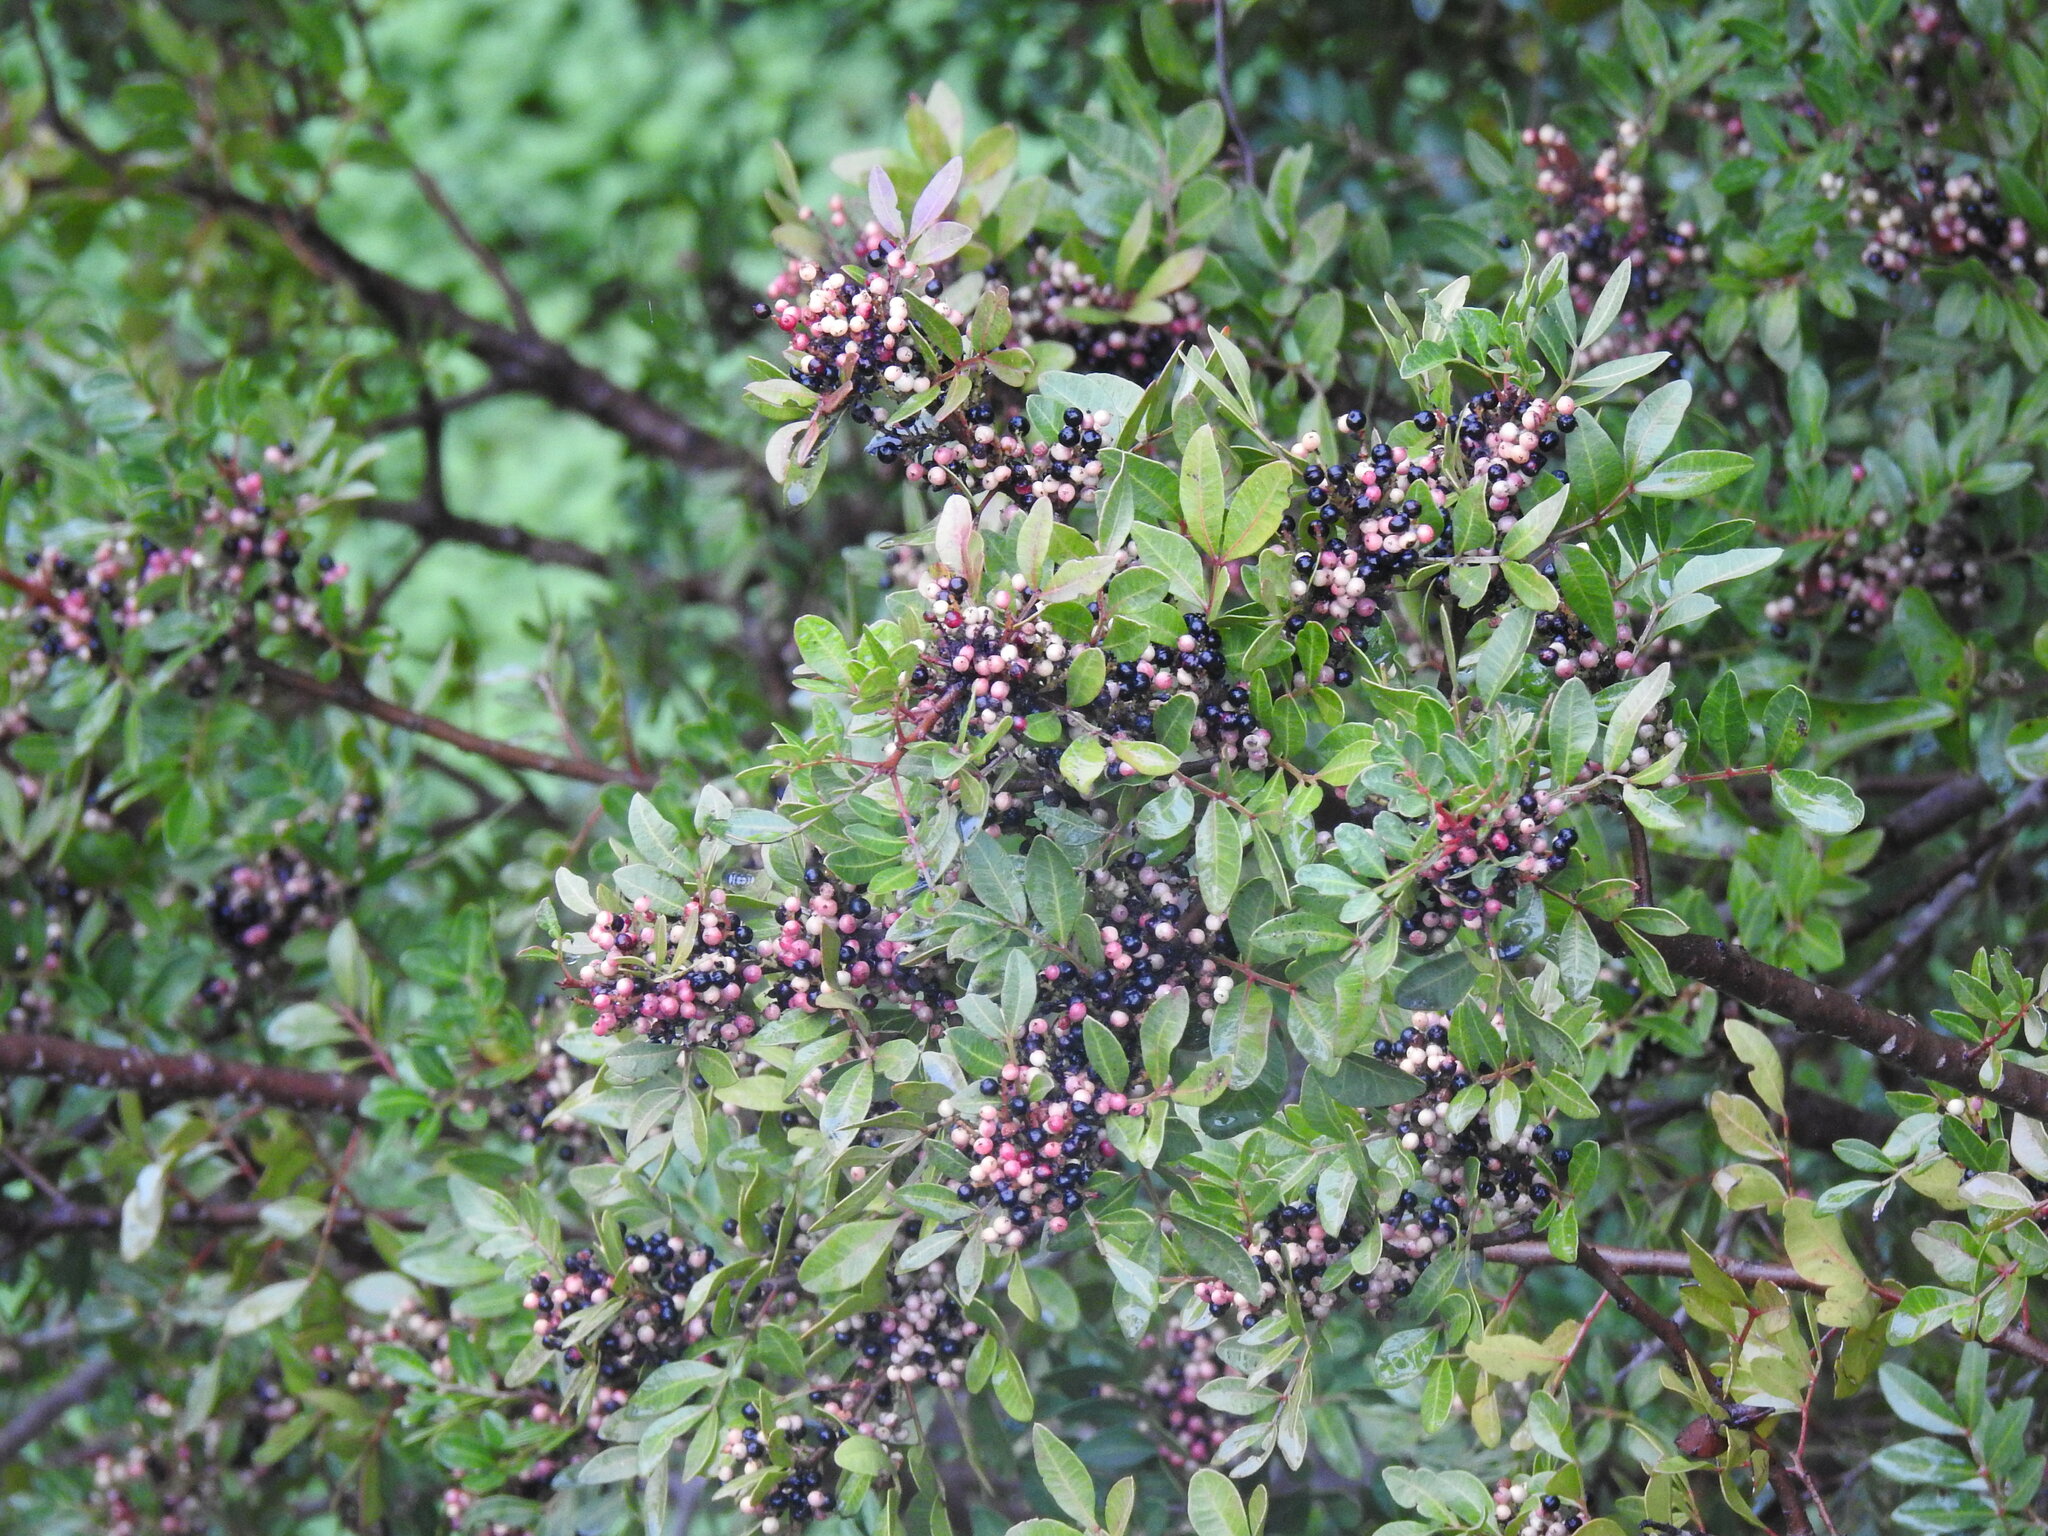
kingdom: Plantae
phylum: Tracheophyta
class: Magnoliopsida
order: Sapindales
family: Anacardiaceae
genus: Pistacia
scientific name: Pistacia lentiscus
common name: Lentisk
